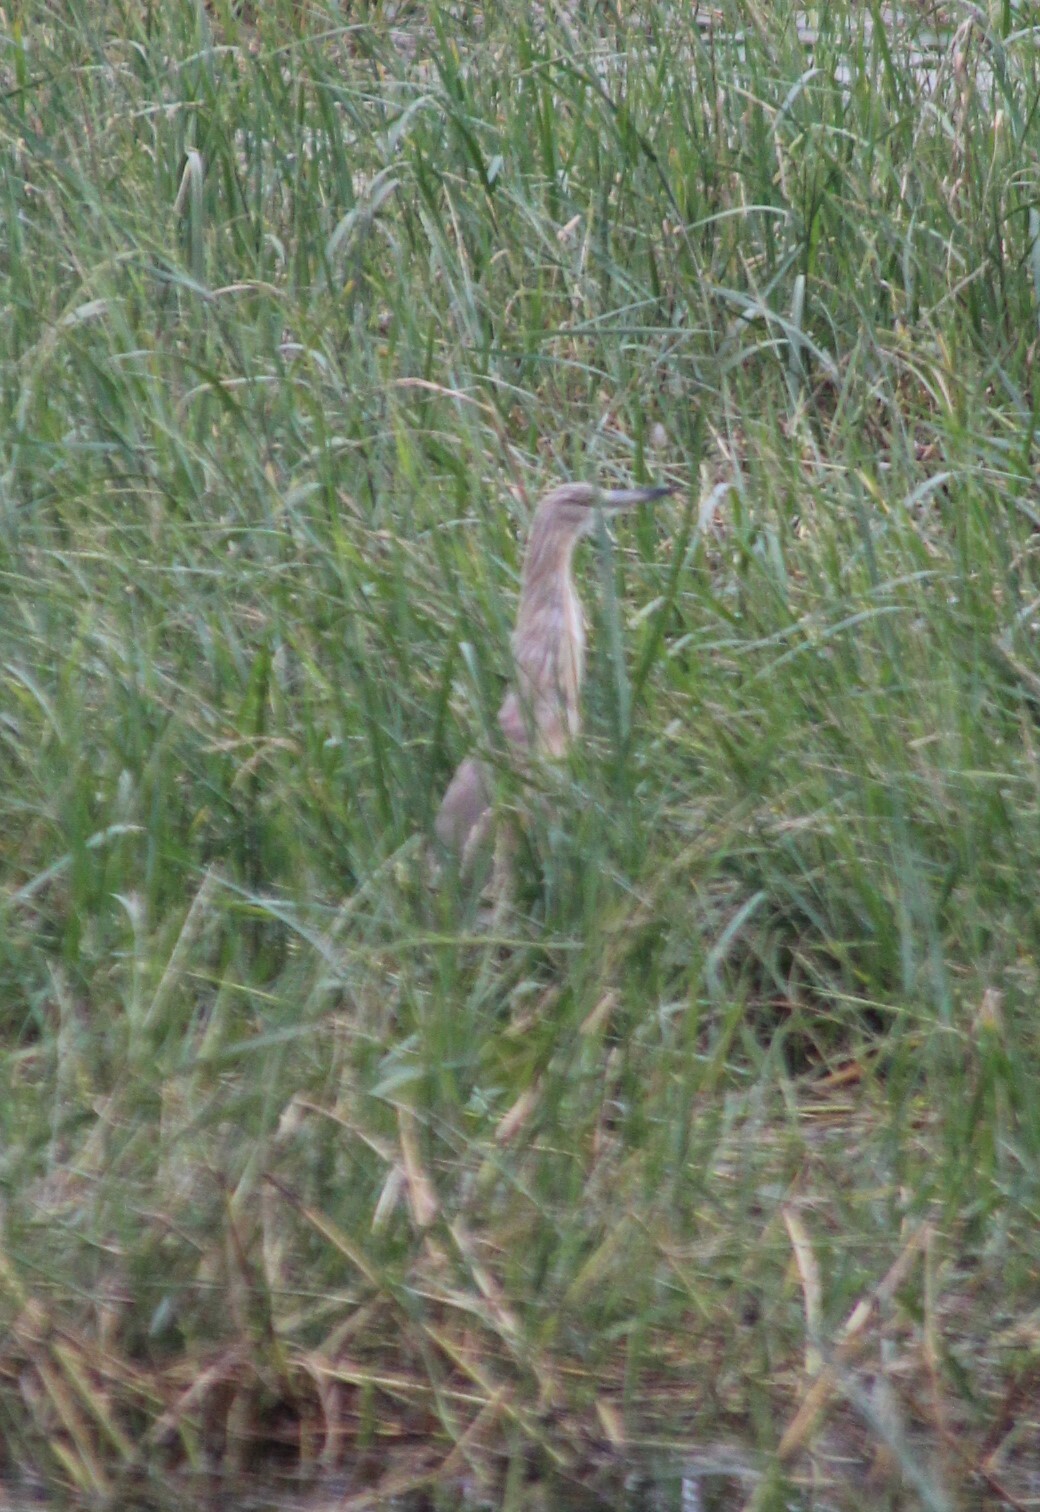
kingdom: Animalia
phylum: Chordata
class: Aves
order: Pelecaniformes
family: Ardeidae
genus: Ardeola
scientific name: Ardeola ralloides
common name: Squacco heron
